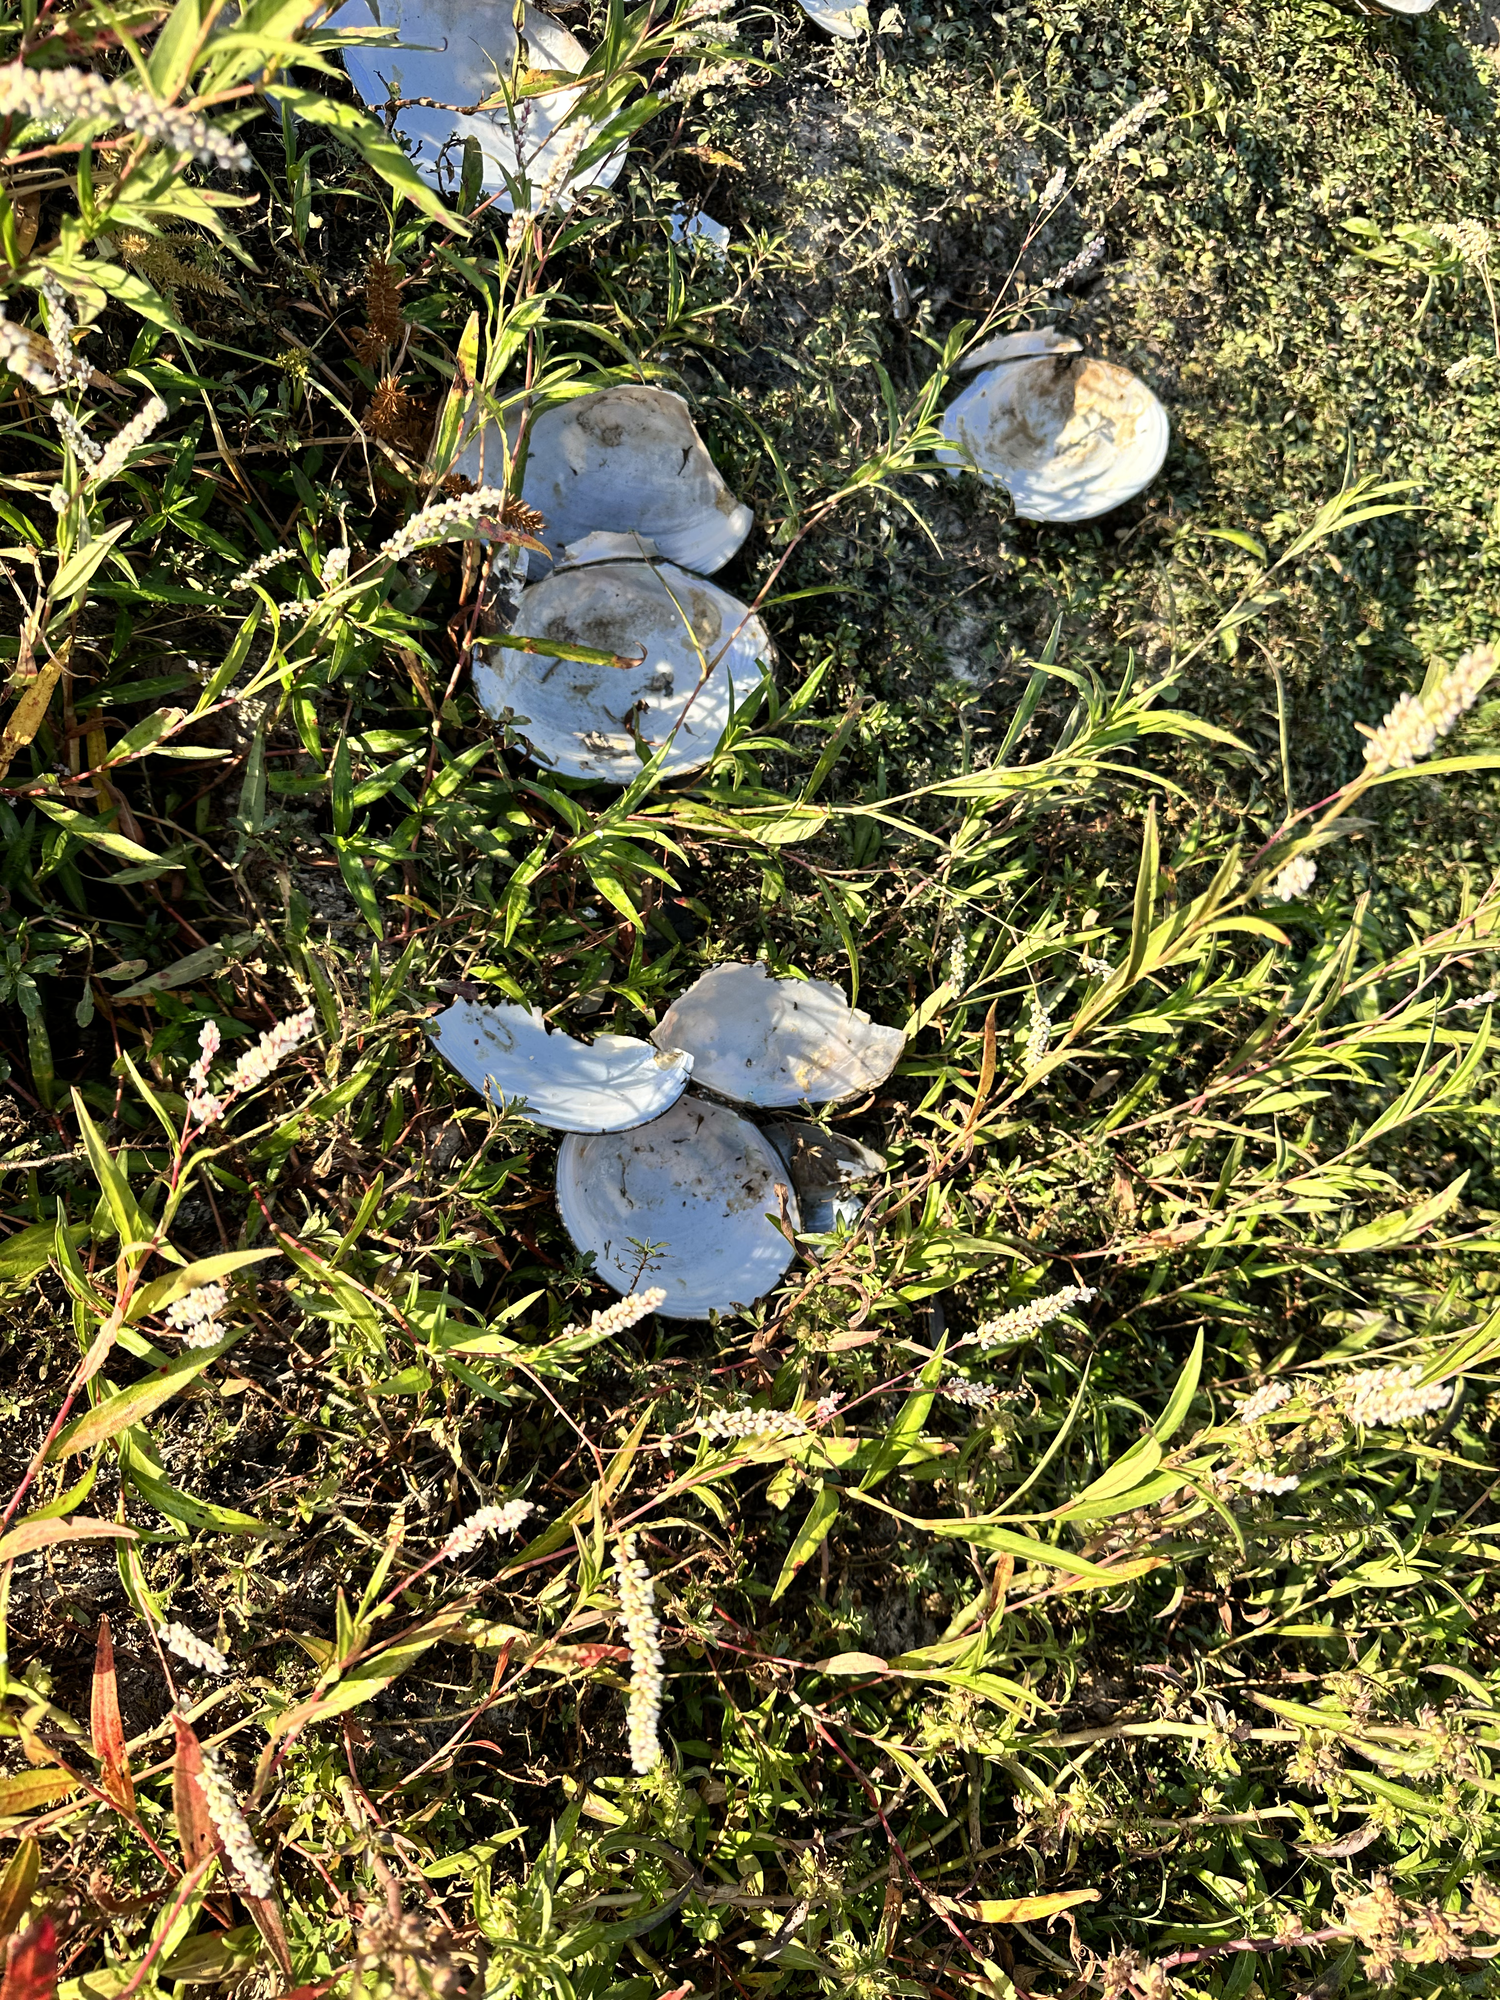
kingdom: Animalia
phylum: Mollusca
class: Bivalvia
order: Unionida
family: Unionidae
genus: Utterbackiana
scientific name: Utterbackiana suborbiculata
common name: Flat floater
